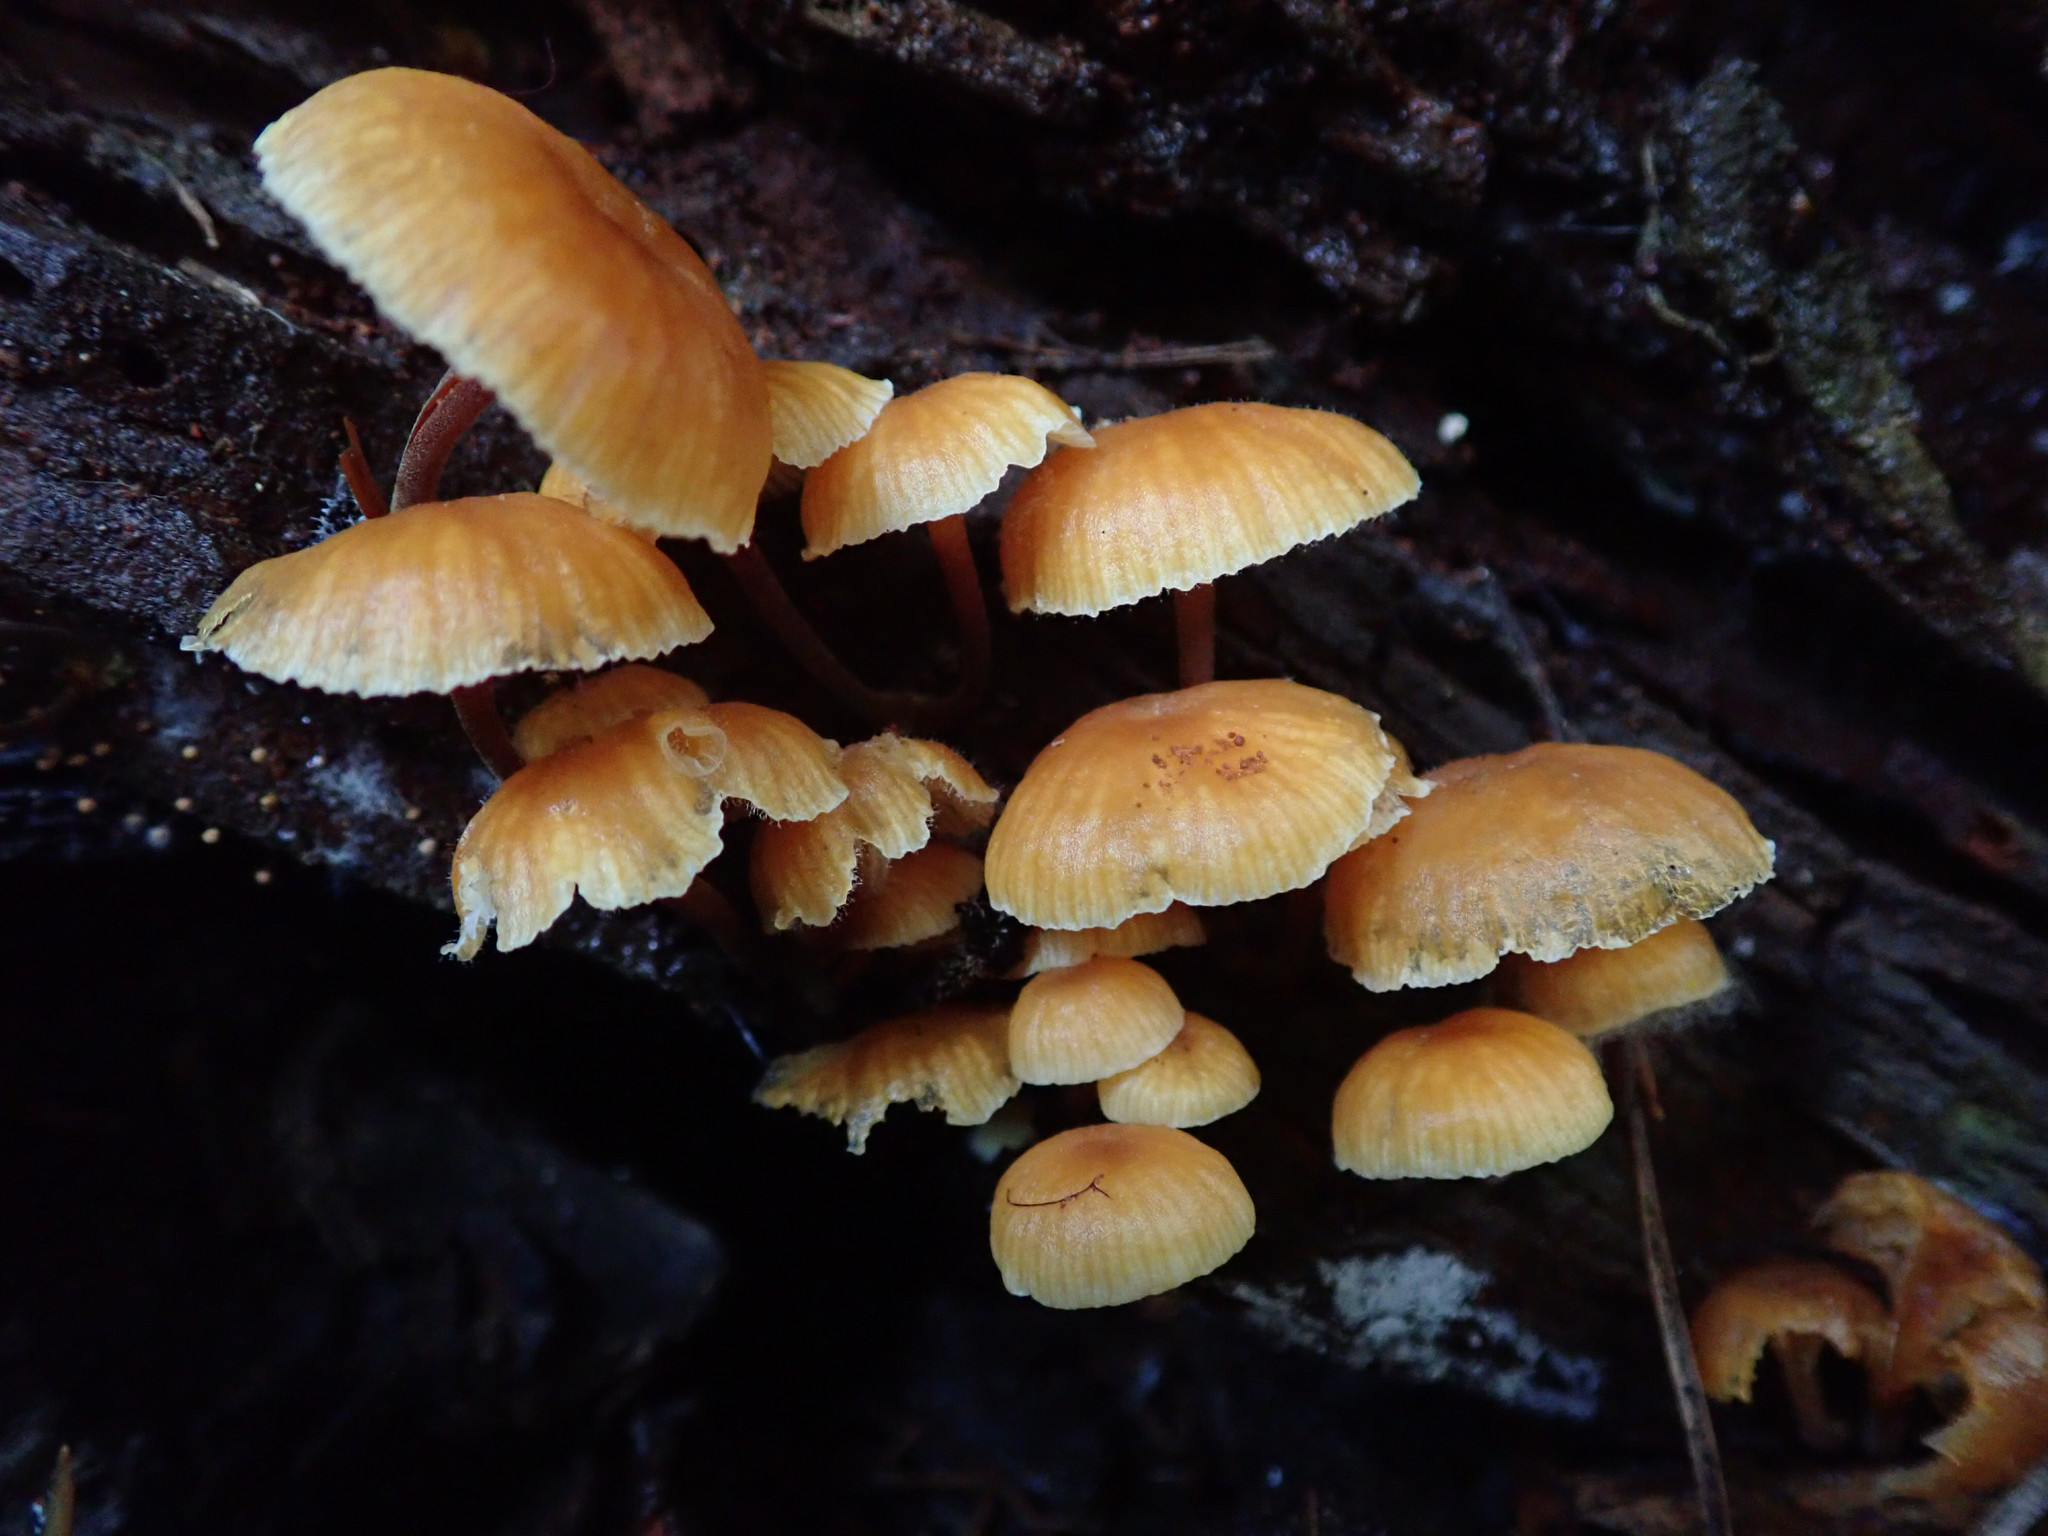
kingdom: Fungi
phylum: Basidiomycota
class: Agaricomycetes
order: Agaricales
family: Mycenaceae
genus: Xeromphalina
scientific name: Xeromphalina campanella
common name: Pinewood gingertail
